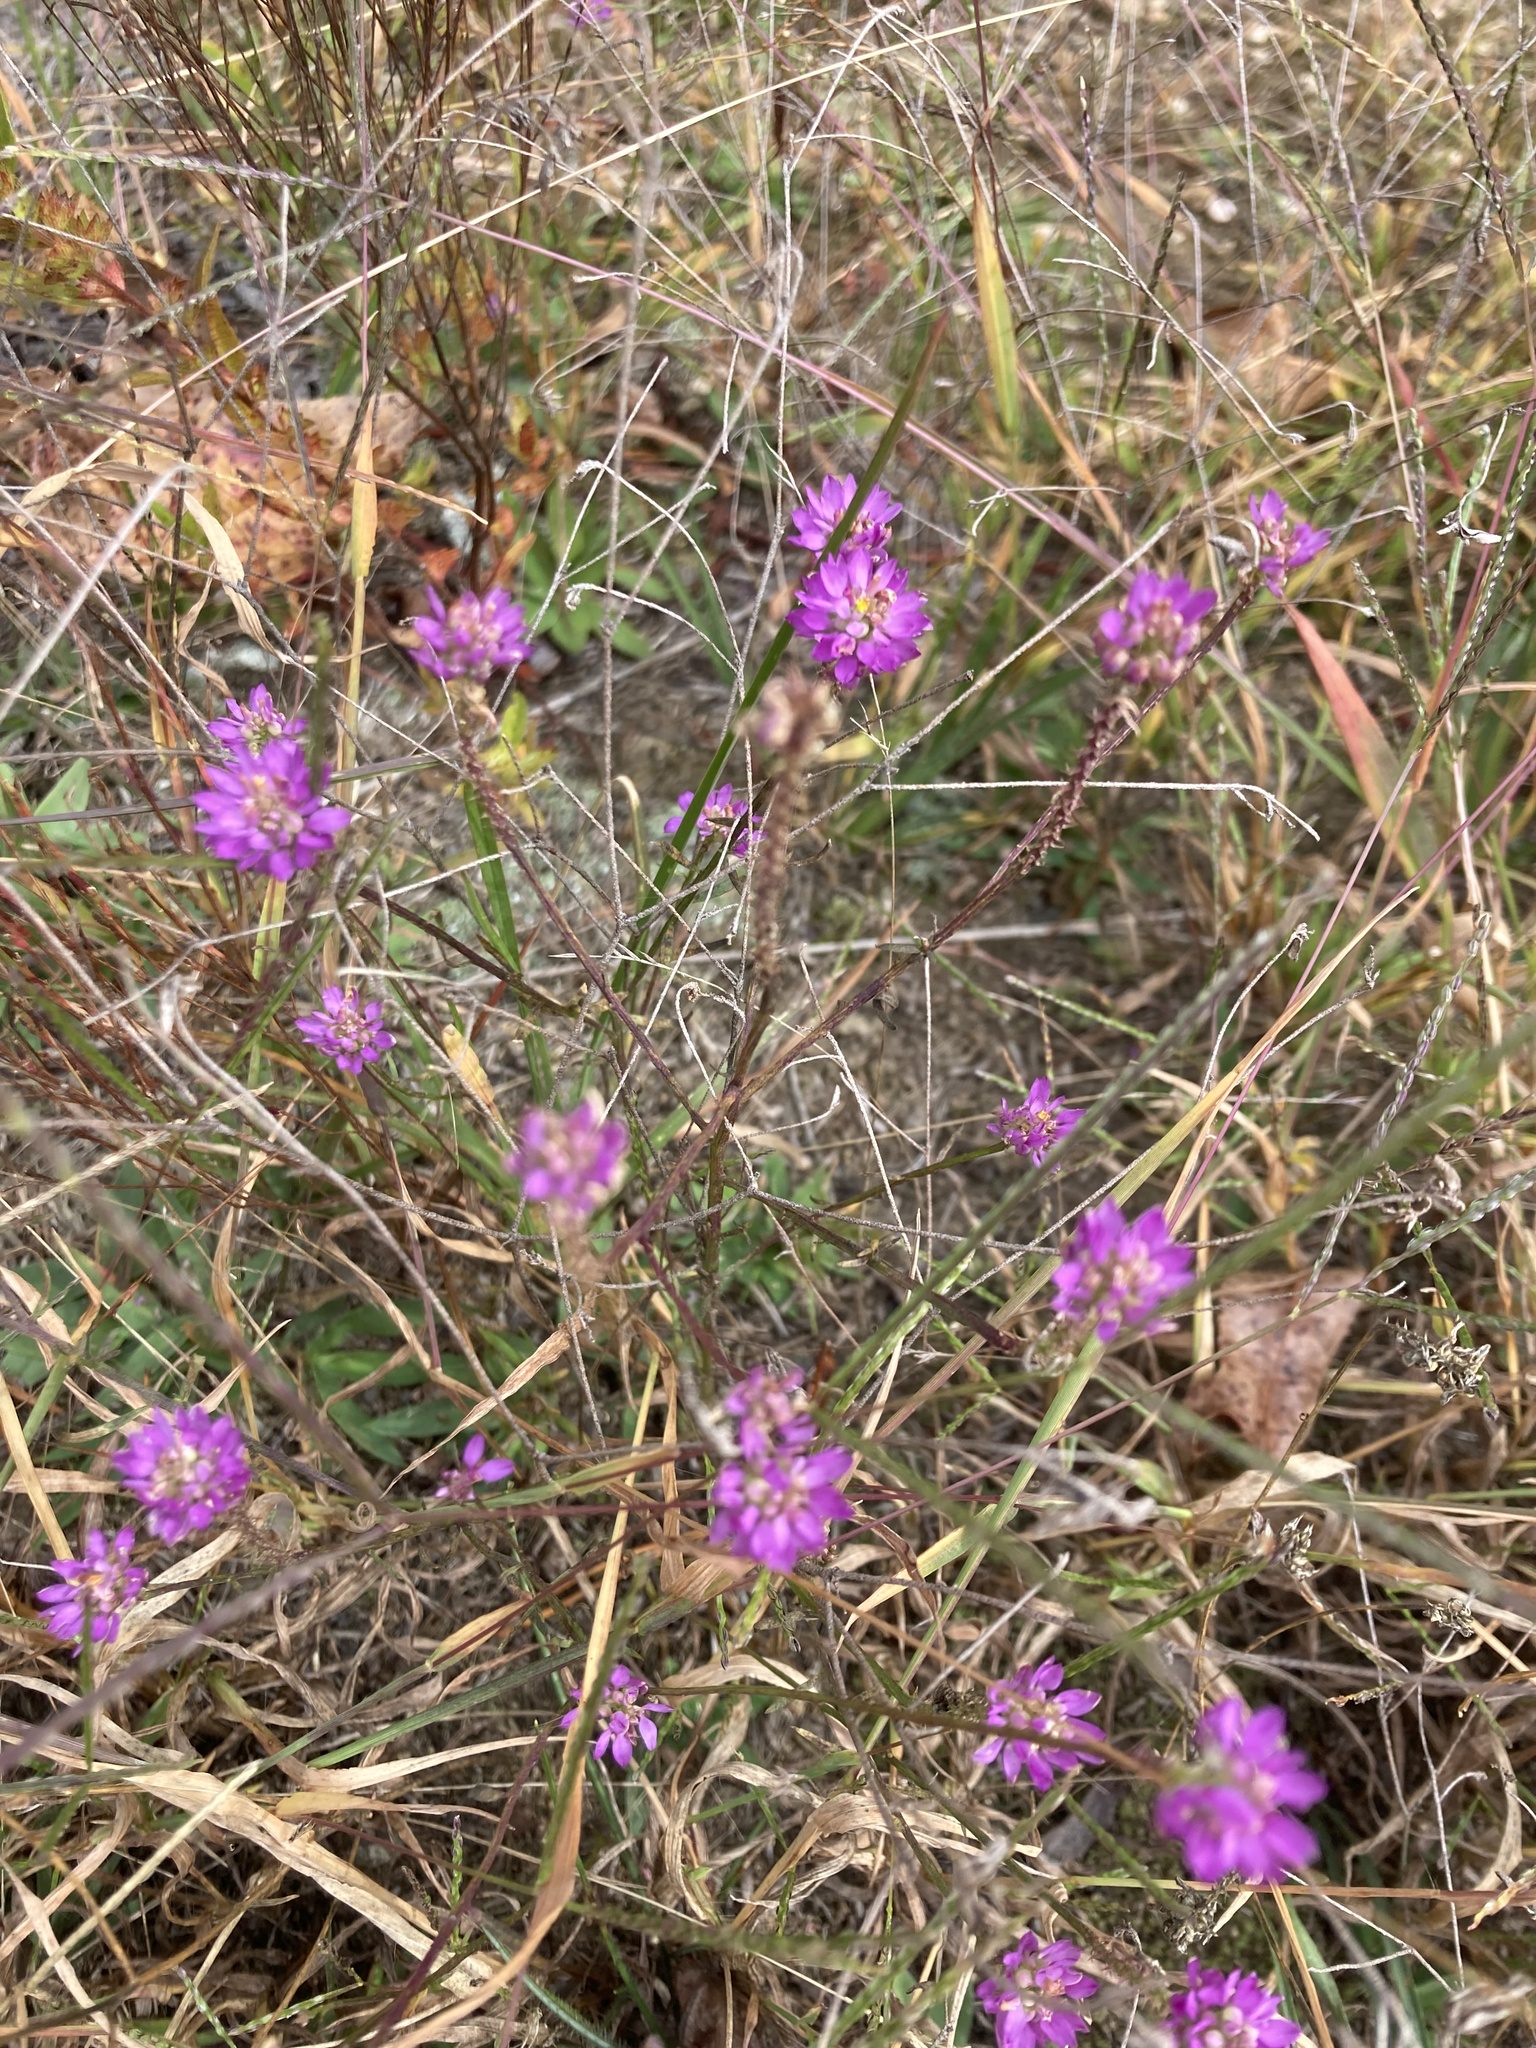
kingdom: Plantae
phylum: Tracheophyta
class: Magnoliopsida
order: Fabales
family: Polygalaceae
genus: Polygala
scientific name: Polygala curtissii
